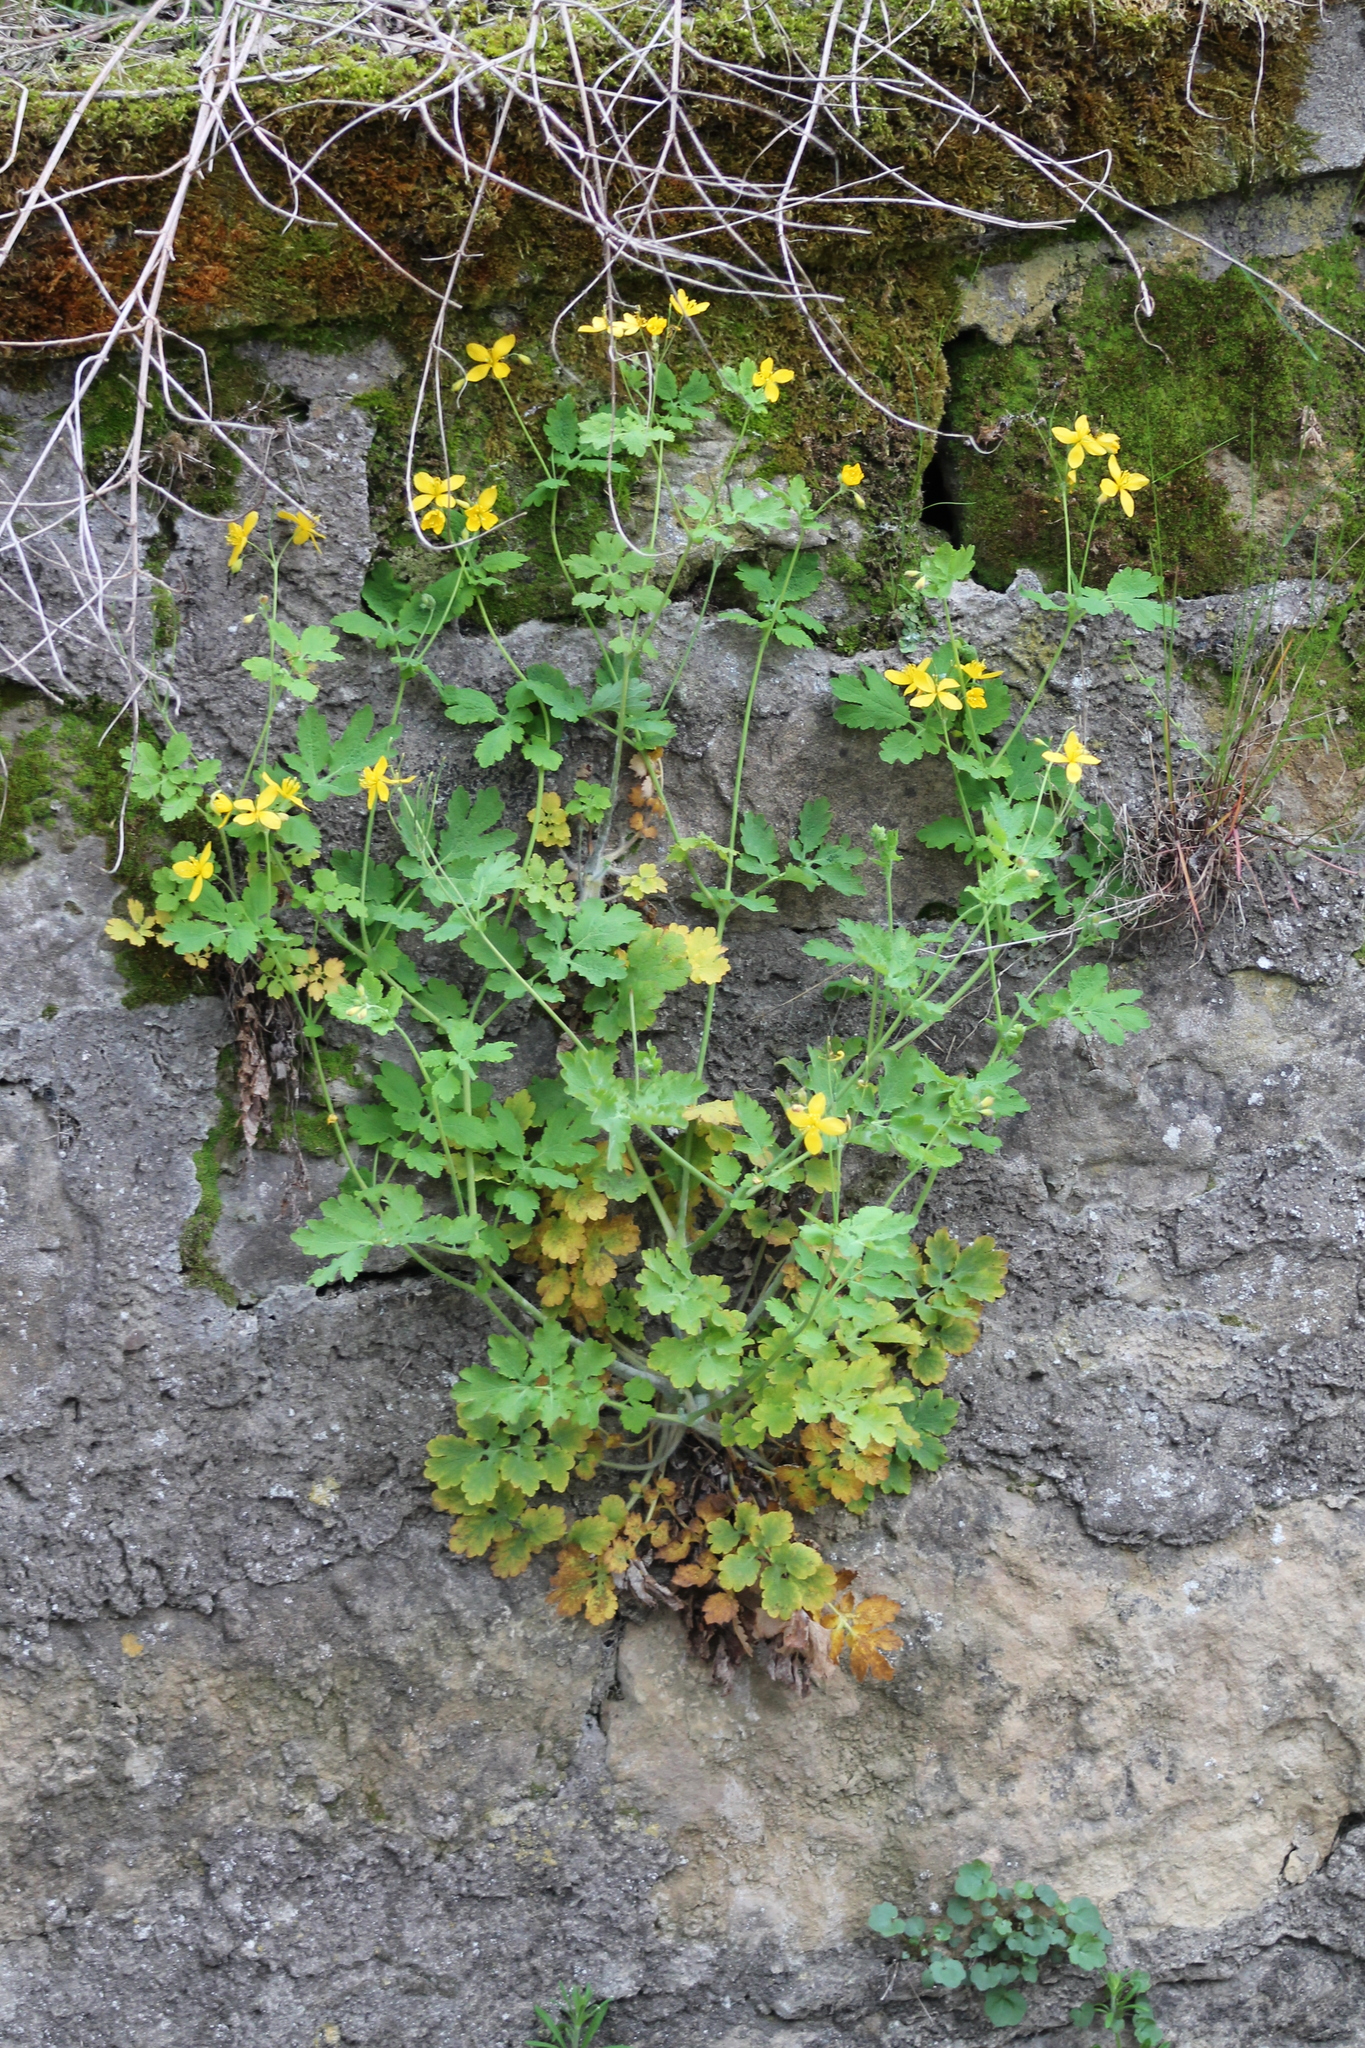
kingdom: Plantae
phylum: Tracheophyta
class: Magnoliopsida
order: Ranunculales
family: Papaveraceae
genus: Chelidonium
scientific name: Chelidonium majus
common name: Greater celandine
